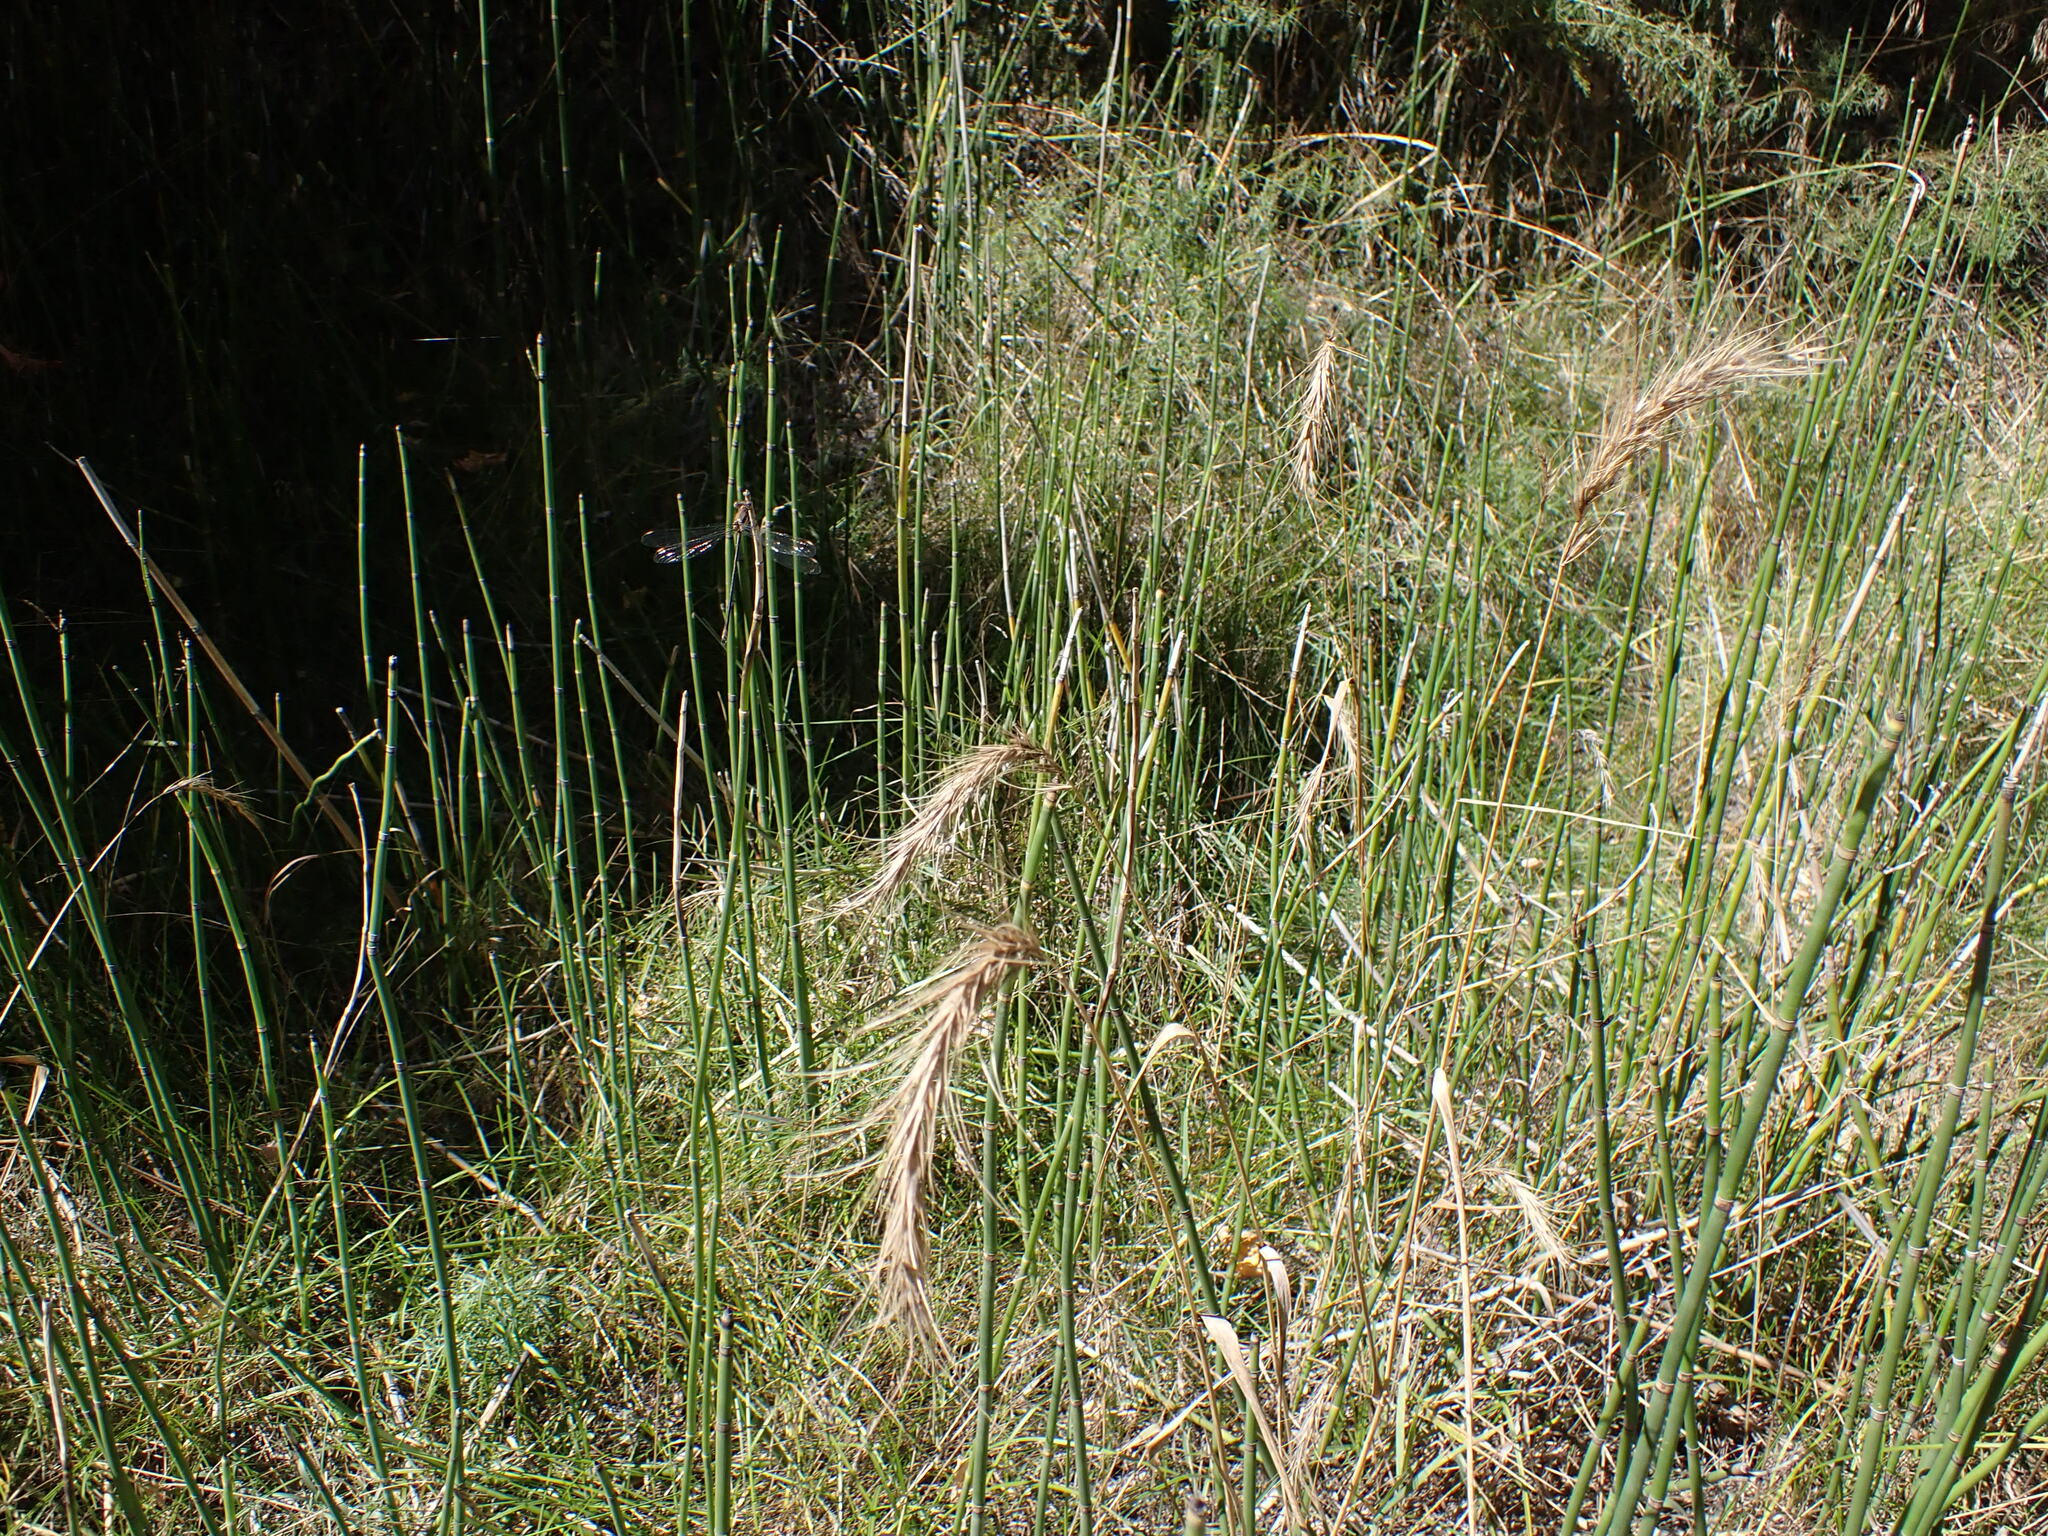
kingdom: Plantae
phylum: Tracheophyta
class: Polypodiopsida
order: Equisetales
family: Equisetaceae
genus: Equisetum
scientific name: Equisetum hyemale
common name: Rough horsetail
